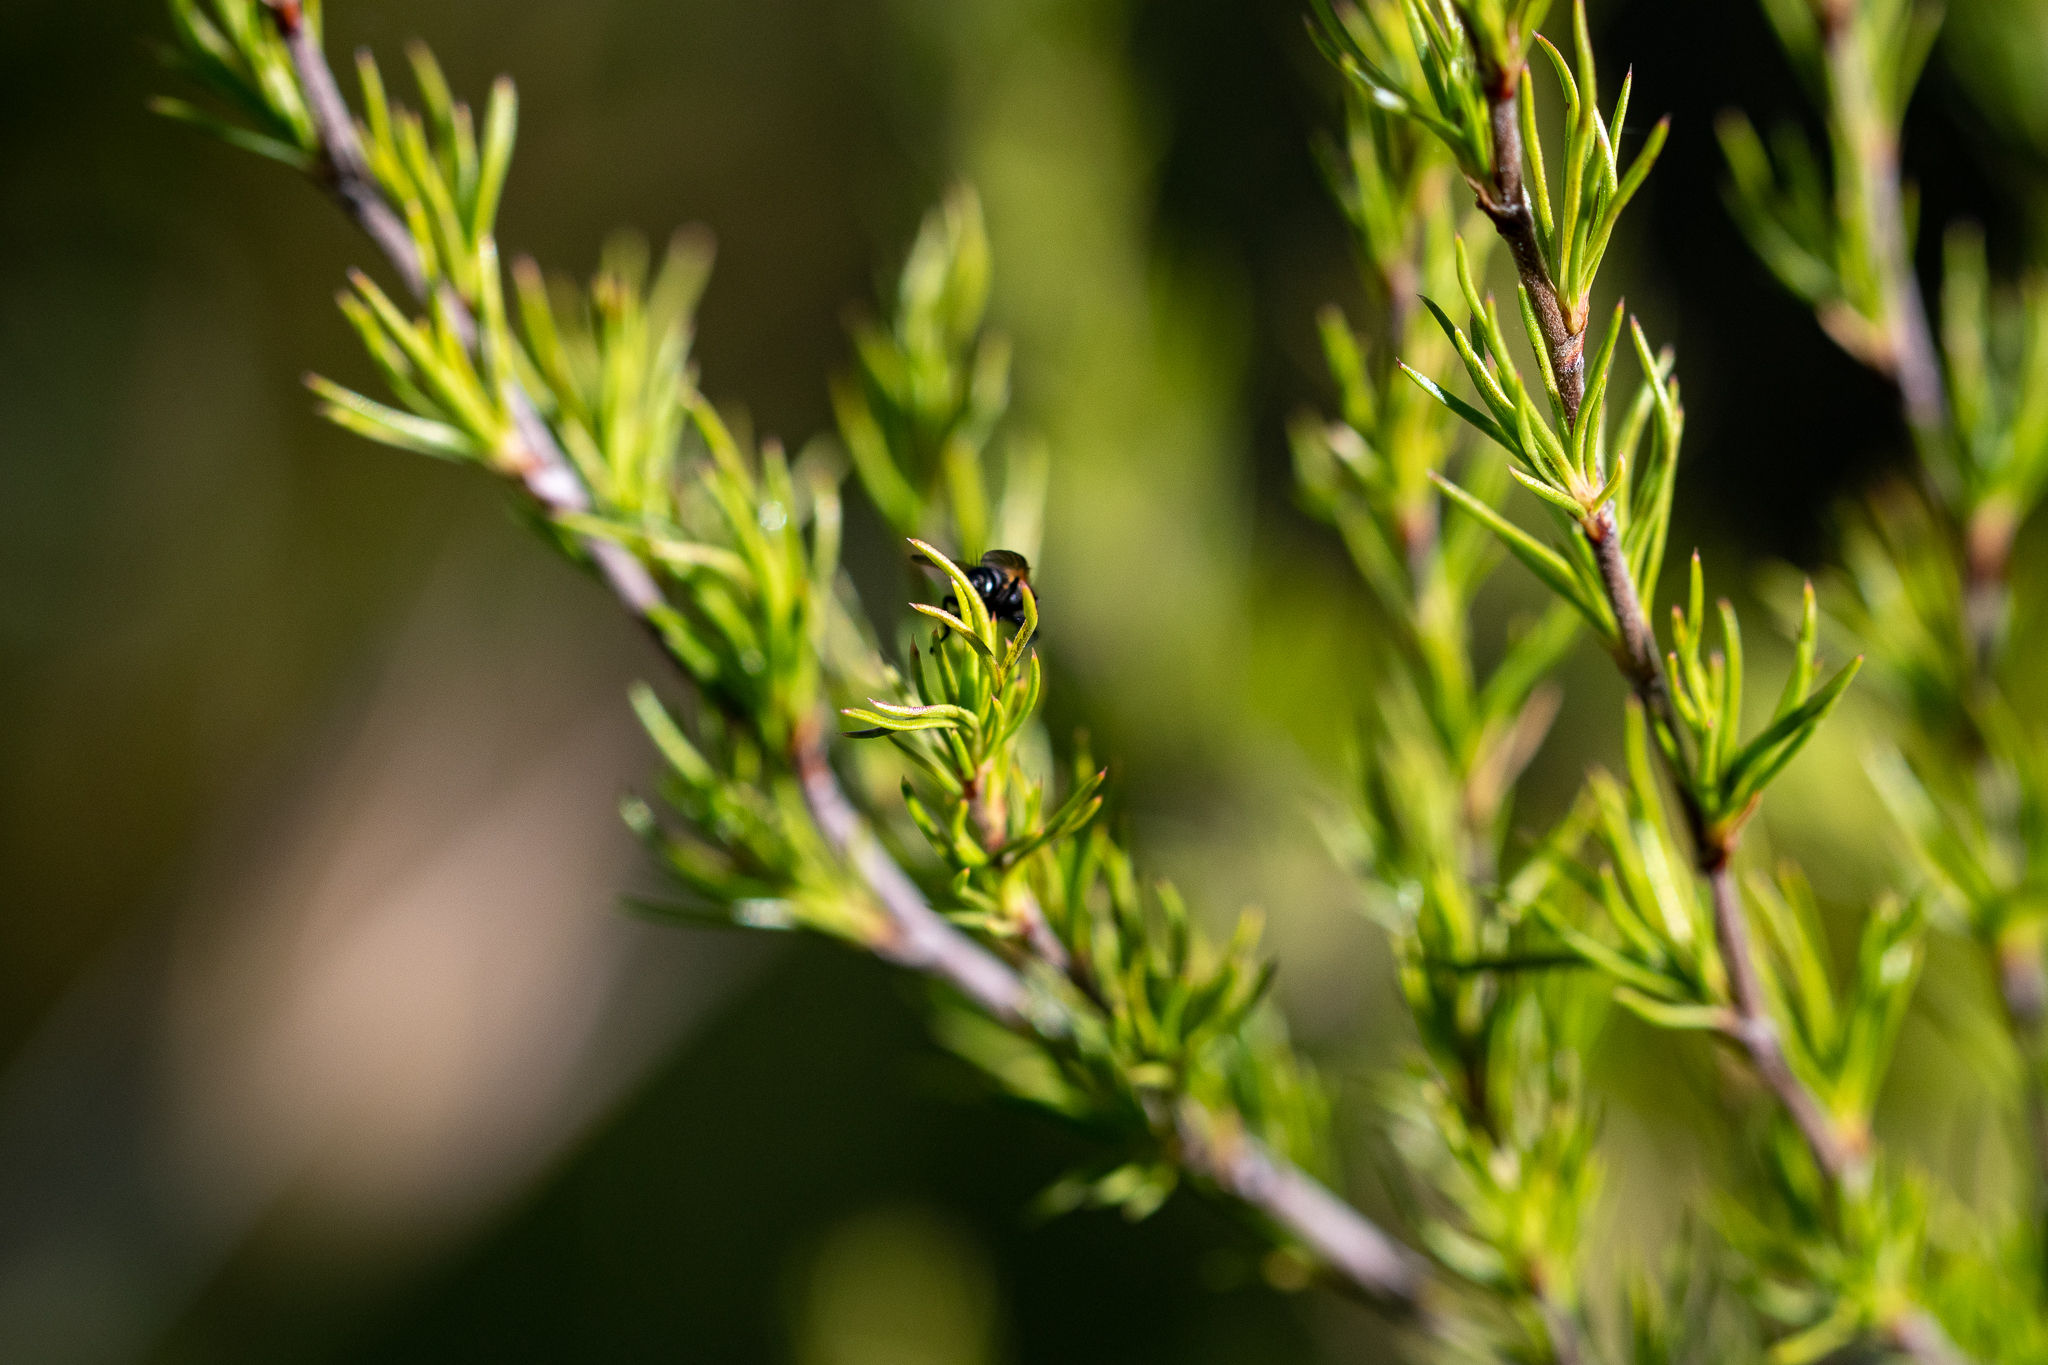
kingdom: Plantae
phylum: Tracheophyta
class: Magnoliopsida
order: Rosales
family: Rosaceae
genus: Cliffortia
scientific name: Cliffortia atrata
